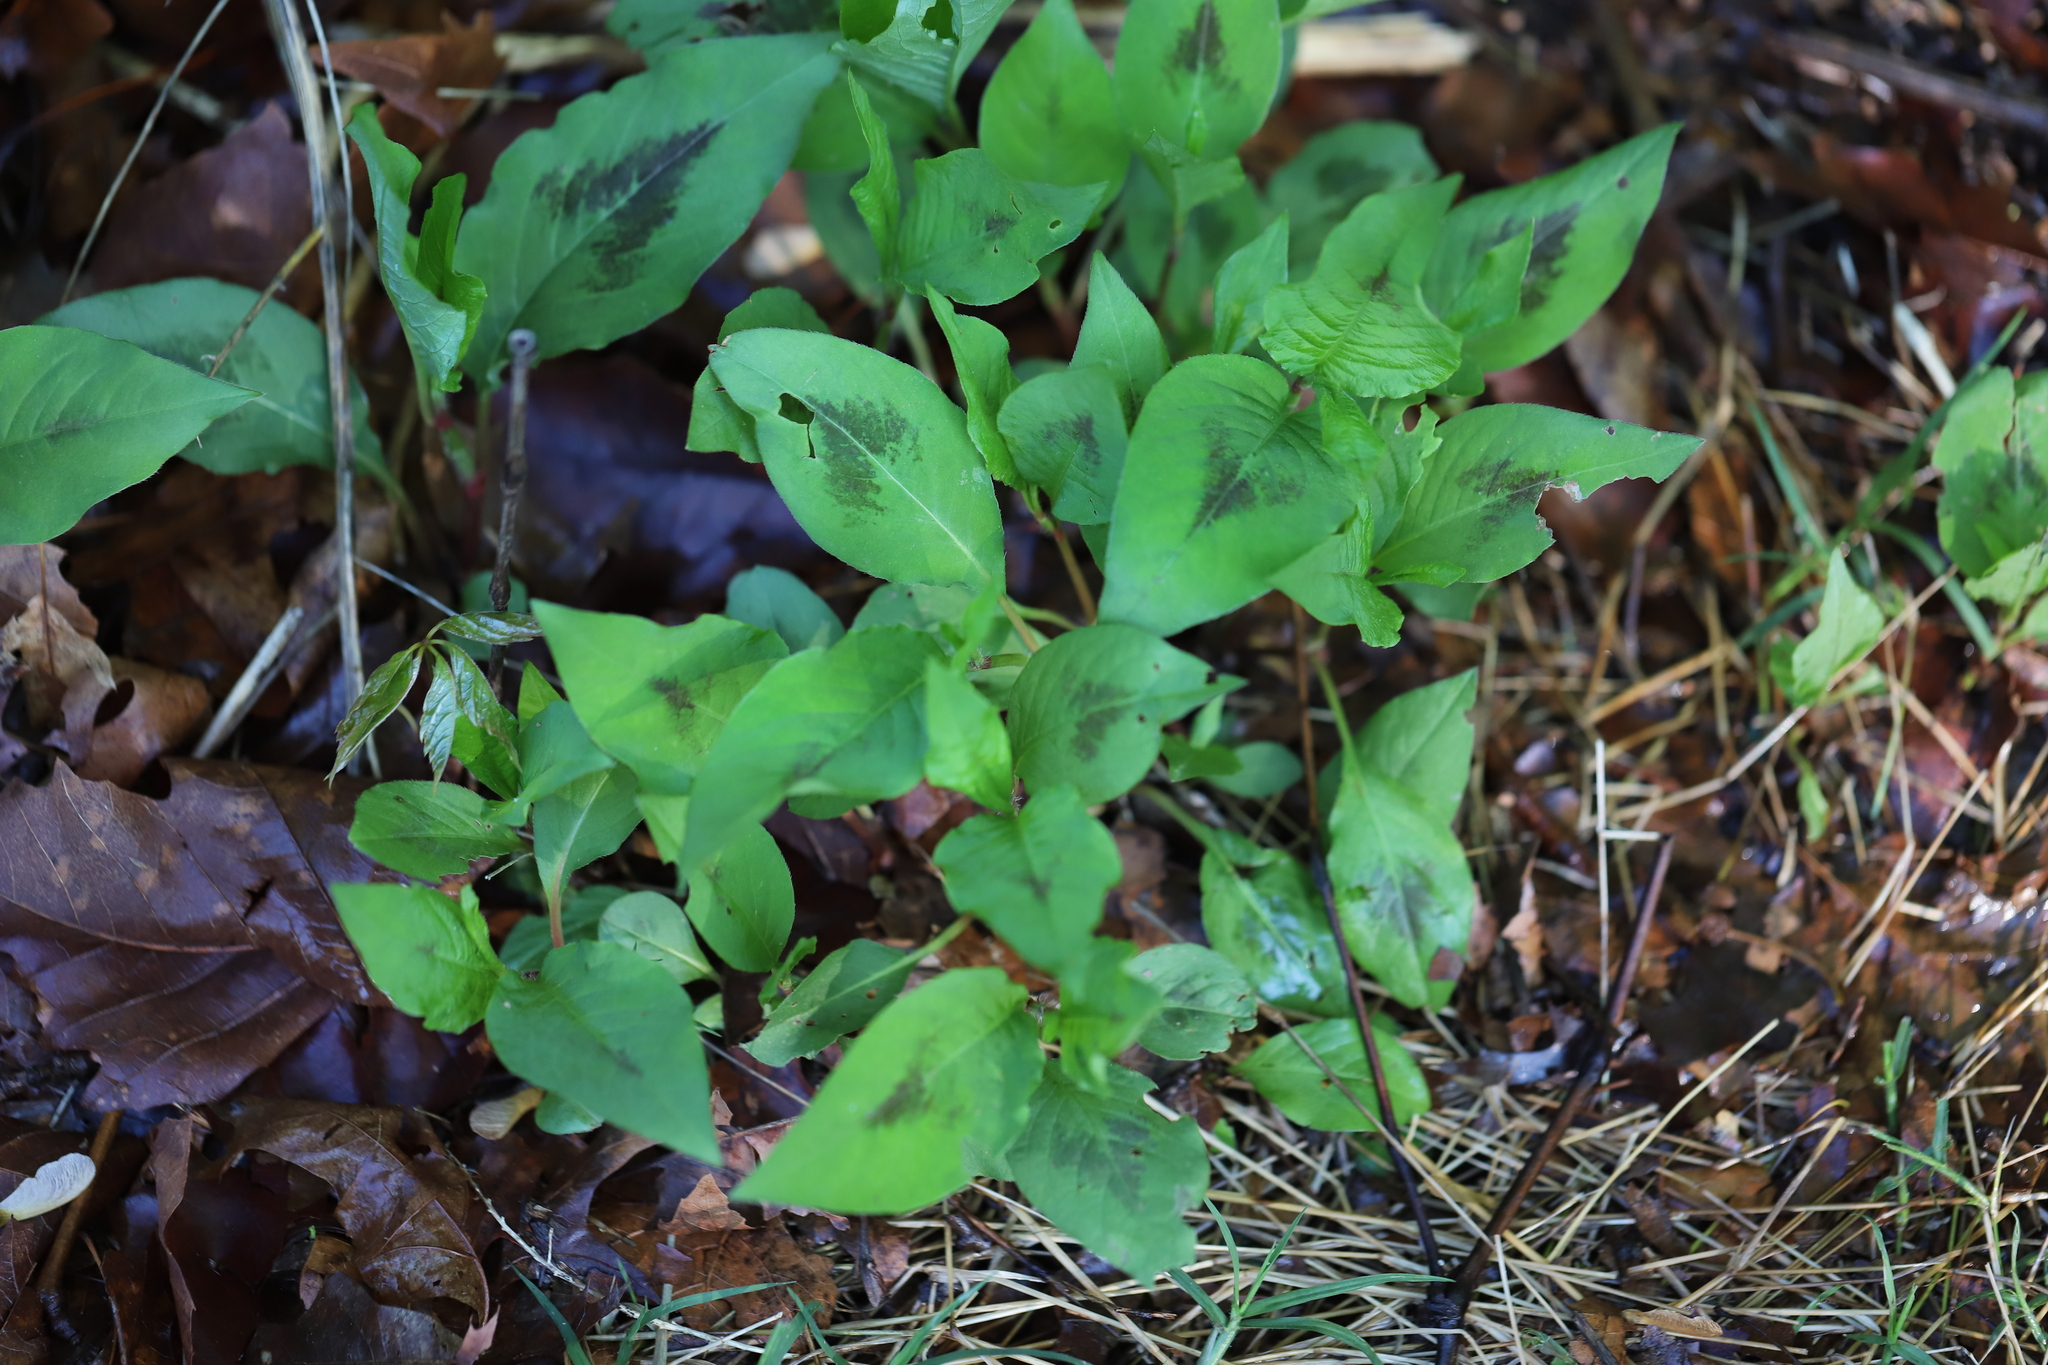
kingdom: Plantae
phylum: Tracheophyta
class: Magnoliopsida
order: Caryophyllales
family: Polygonaceae
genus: Persicaria
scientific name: Persicaria virginiana
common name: Jumpseed
